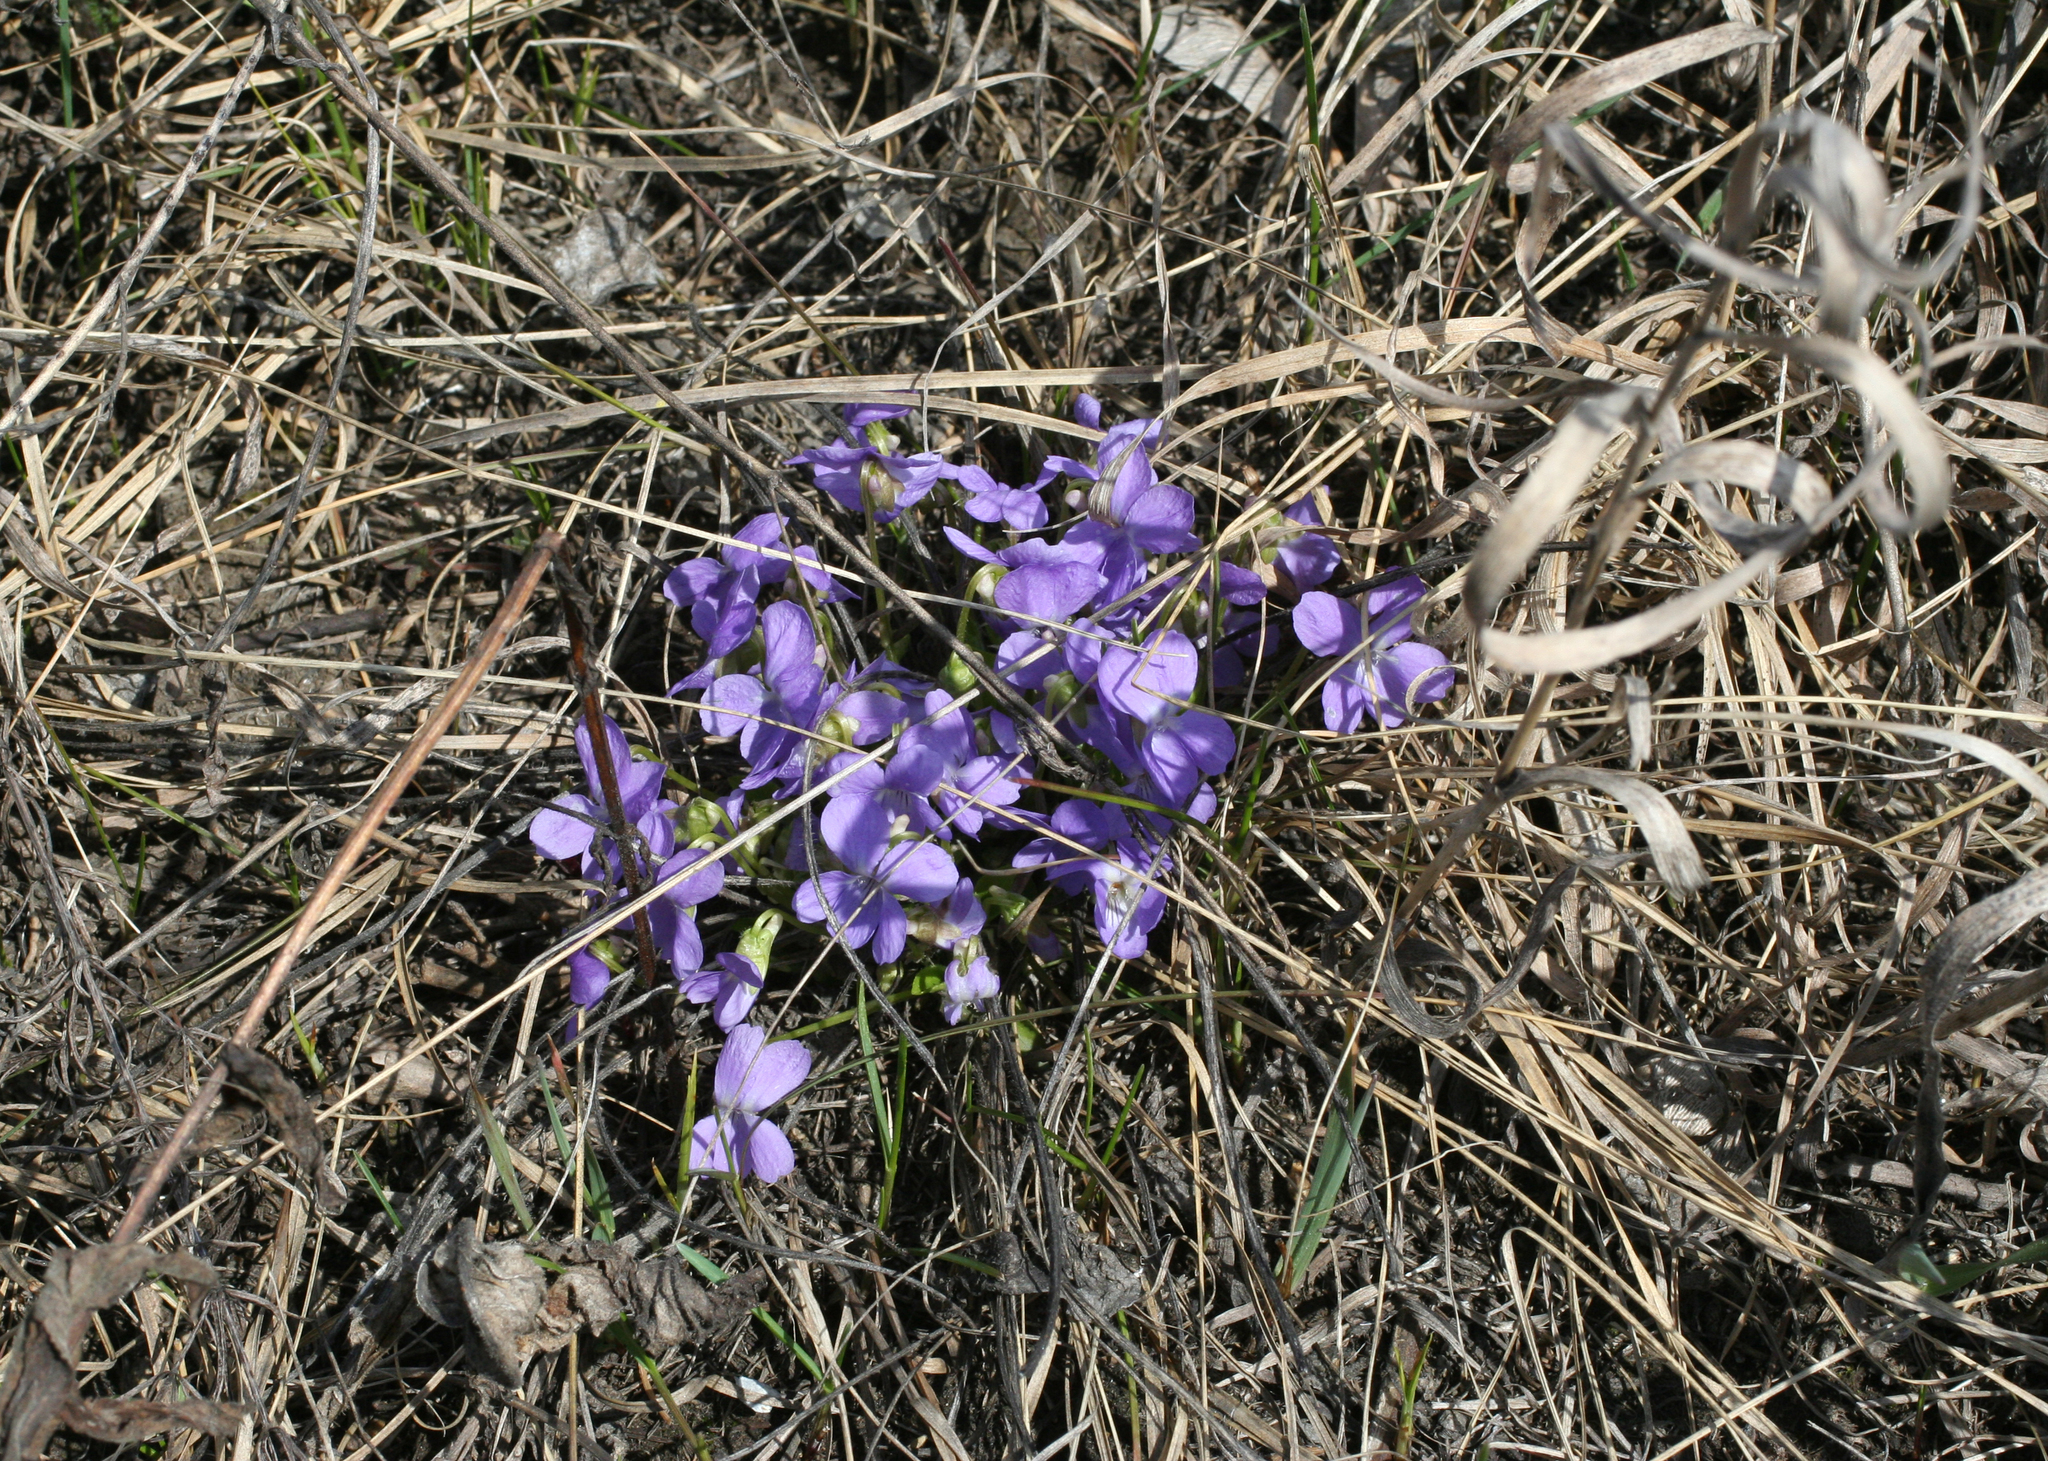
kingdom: Plantae
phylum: Tracheophyta
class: Magnoliopsida
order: Malpighiales
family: Violaceae
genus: Viola
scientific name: Viola hirta
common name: Hairy violet
